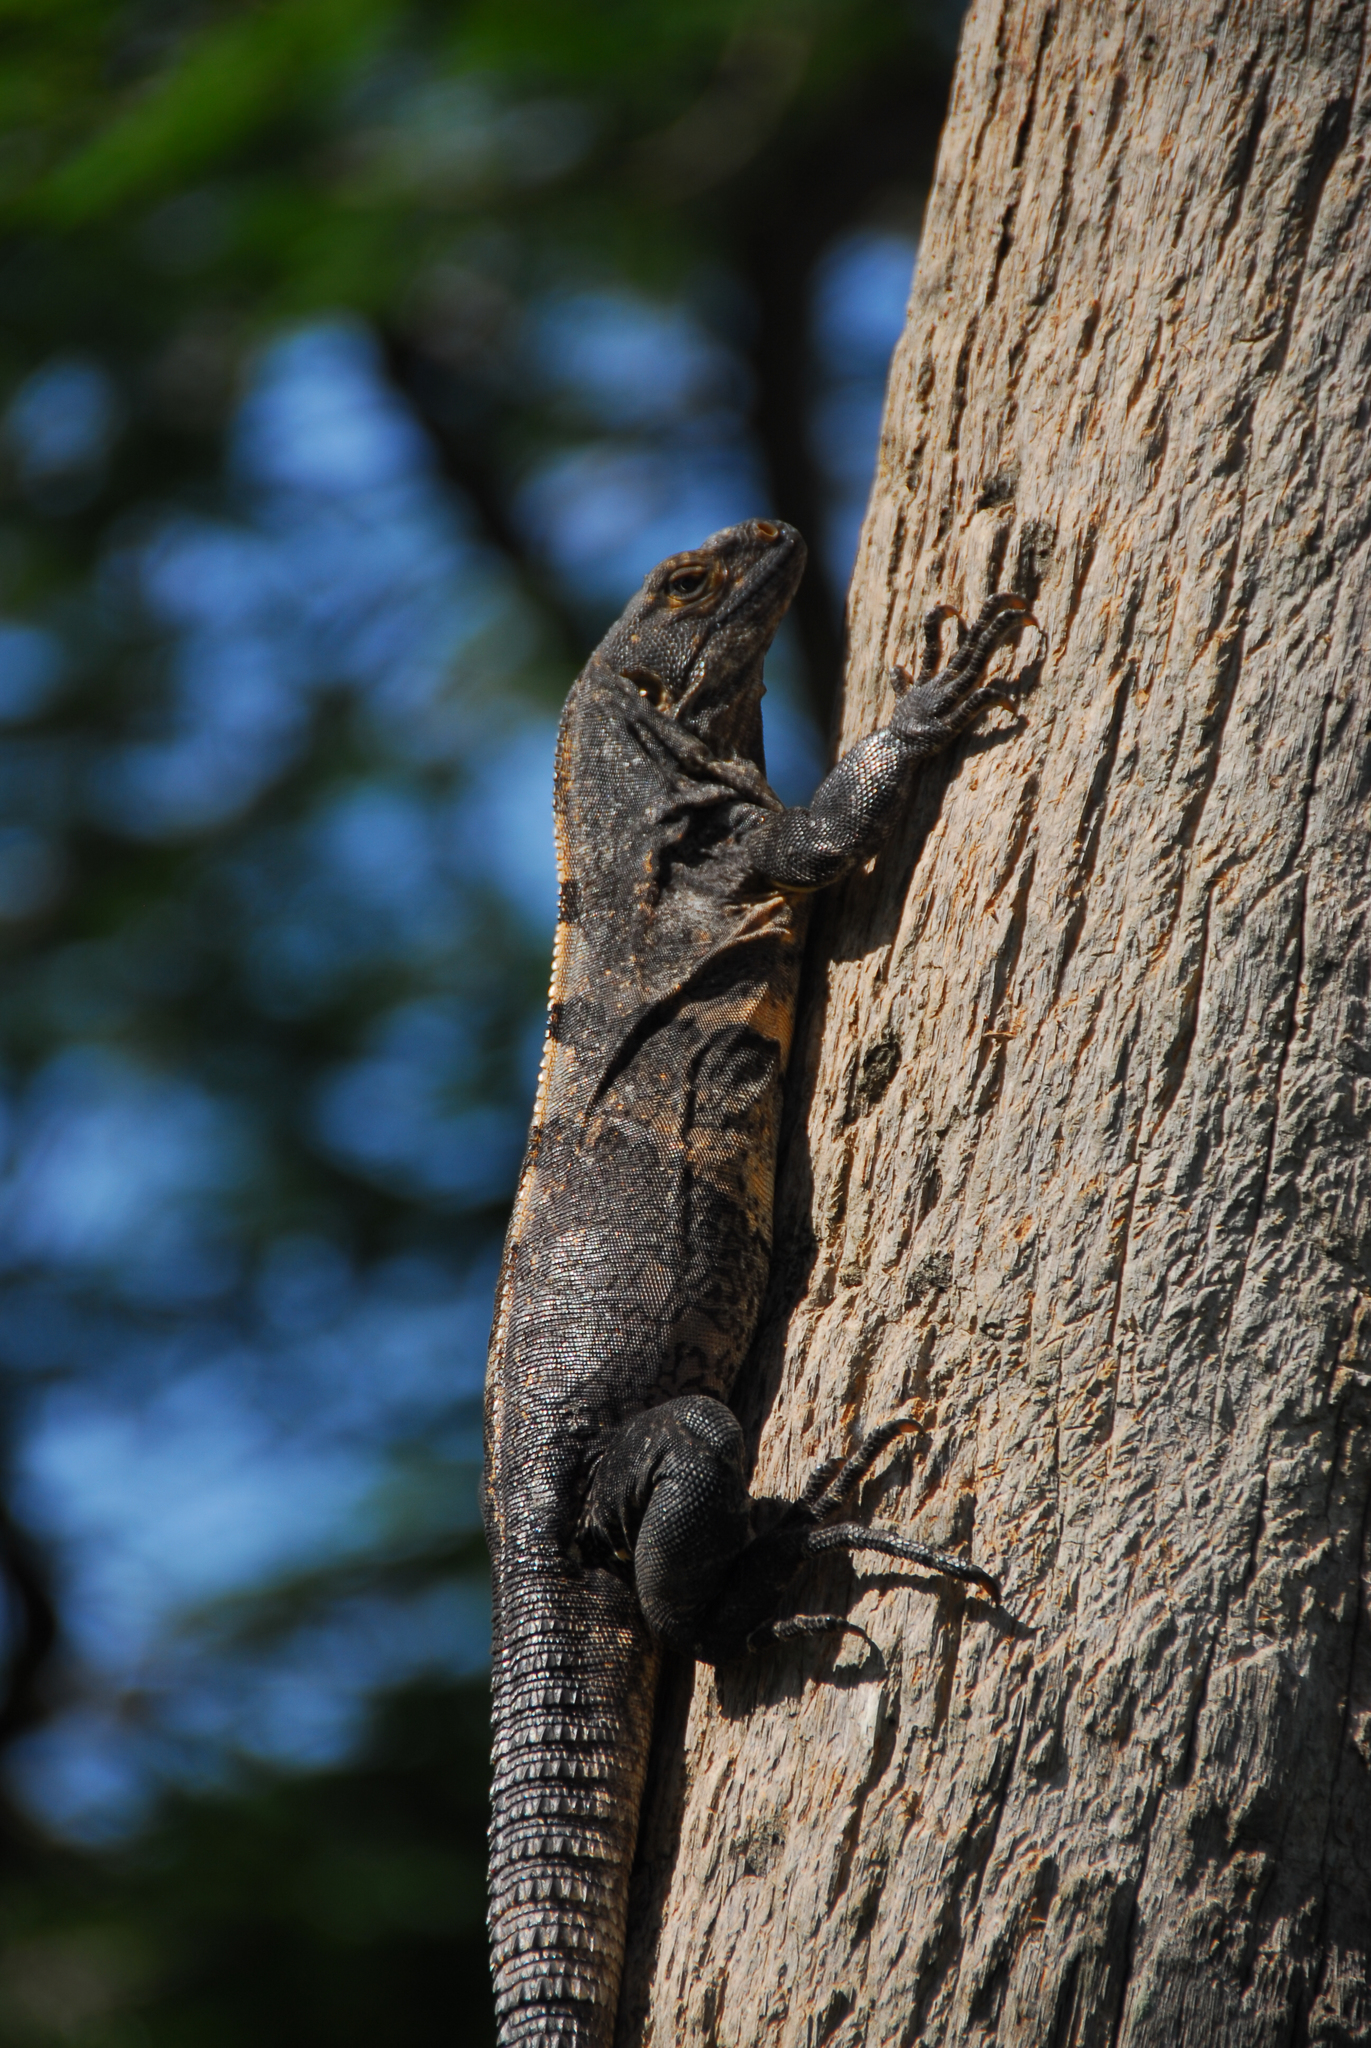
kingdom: Animalia
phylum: Chordata
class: Squamata
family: Iguanidae
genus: Ctenosaura
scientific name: Ctenosaura similis
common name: Black spiny-tailed iguana
